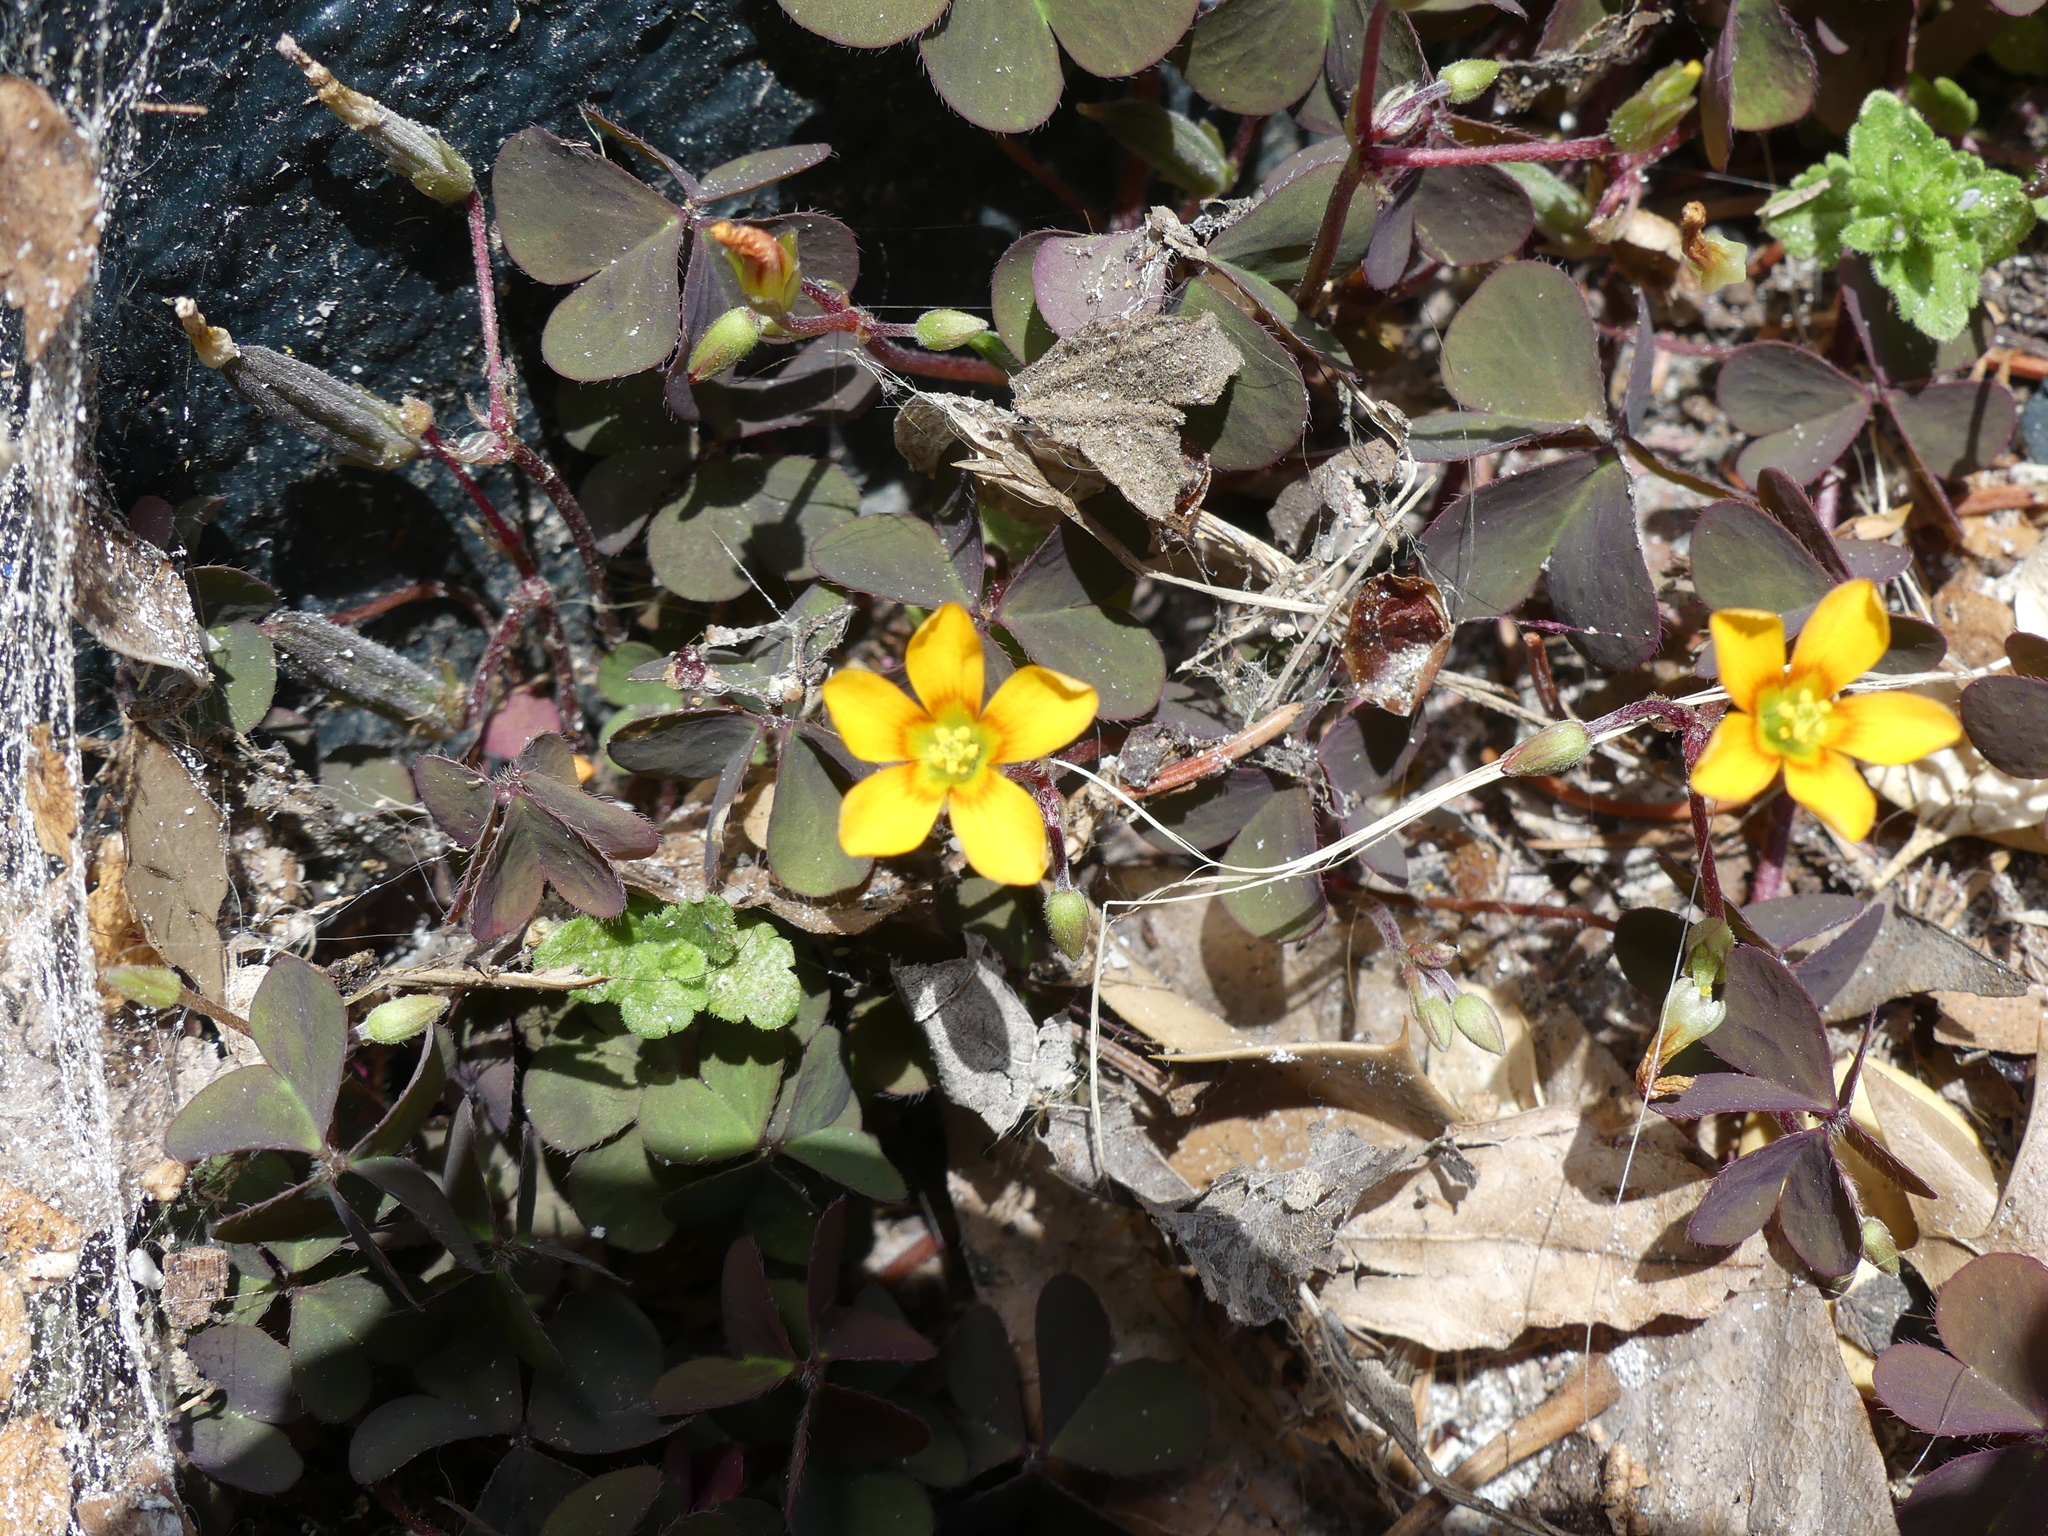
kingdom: Plantae
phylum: Tracheophyta
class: Magnoliopsida
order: Oxalidales
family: Oxalidaceae
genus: Oxalis
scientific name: Oxalis corniculata
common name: Procumbent yellow-sorrel
